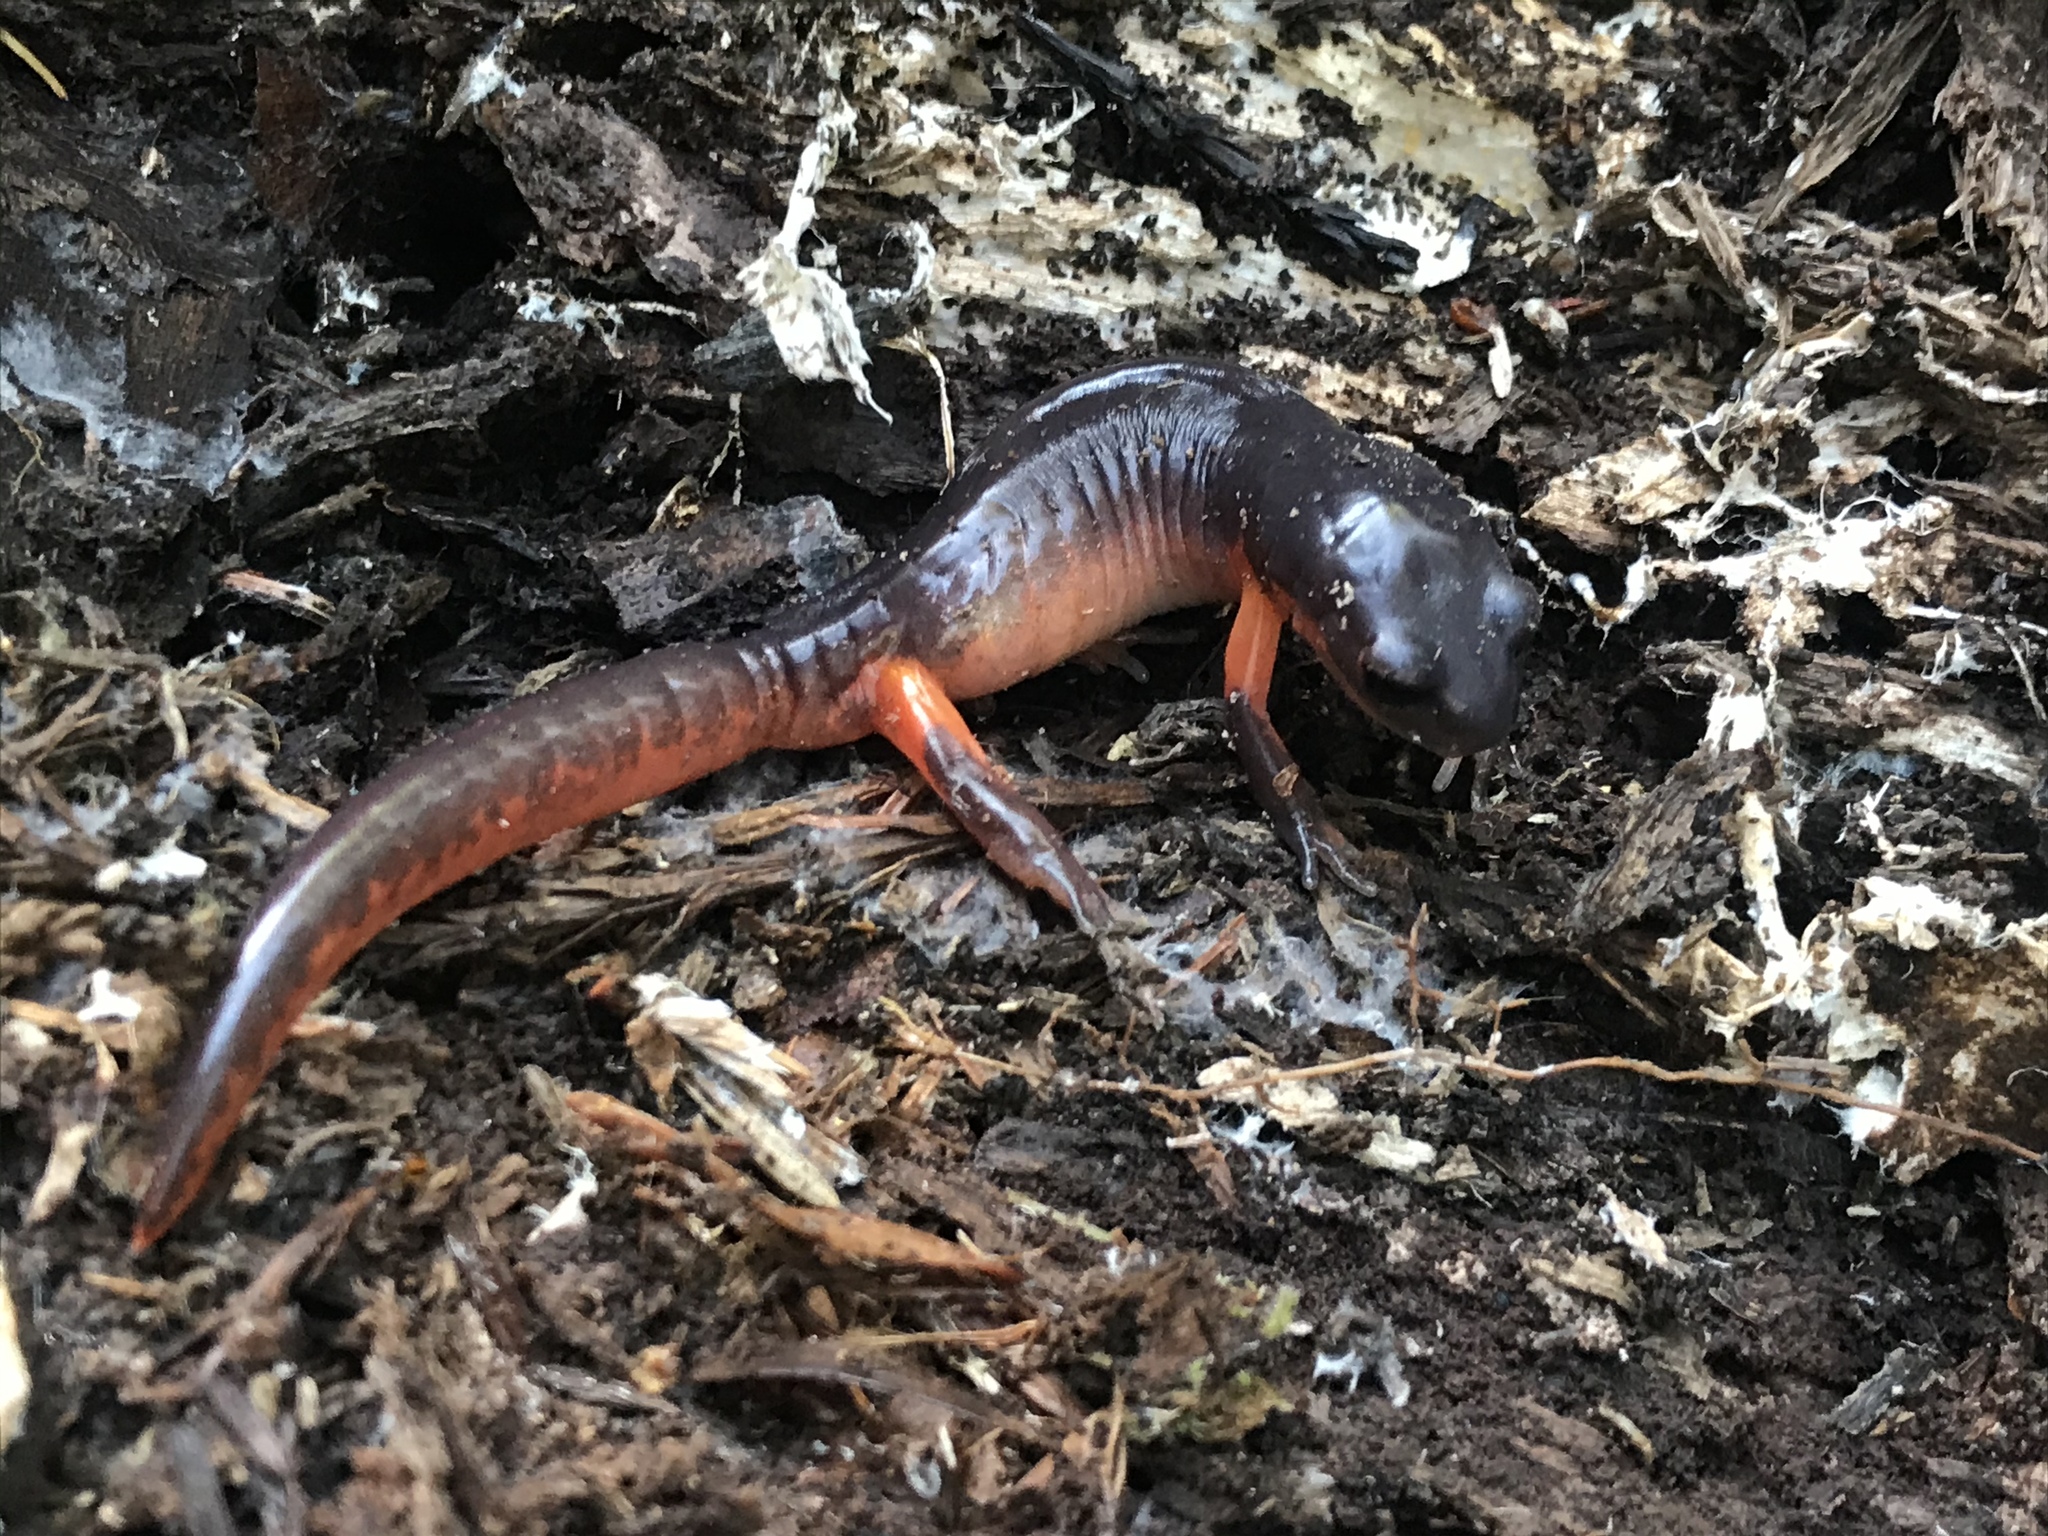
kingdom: Animalia
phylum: Chordata
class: Amphibia
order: Caudata
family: Plethodontidae
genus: Ensatina
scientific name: Ensatina eschscholtzii
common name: Ensatina
